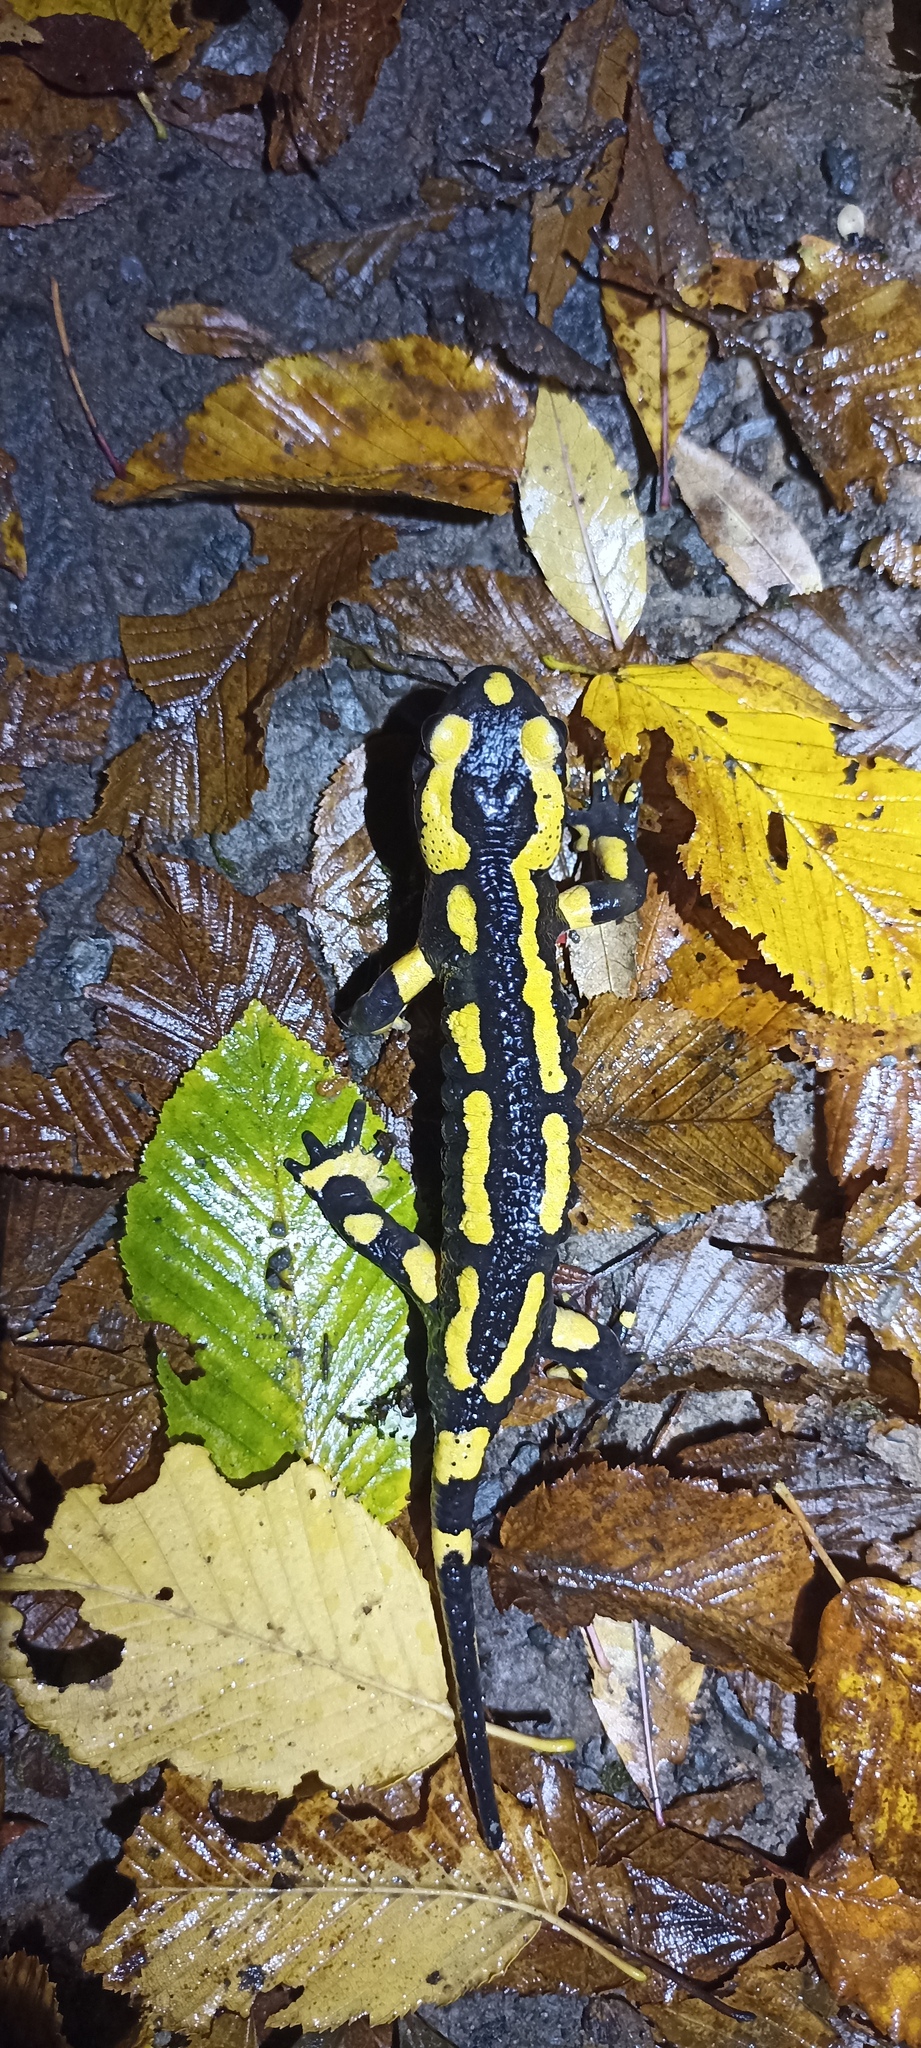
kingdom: Animalia
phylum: Chordata
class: Amphibia
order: Caudata
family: Salamandridae
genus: Salamandra
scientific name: Salamandra salamandra
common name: Fire salamander
